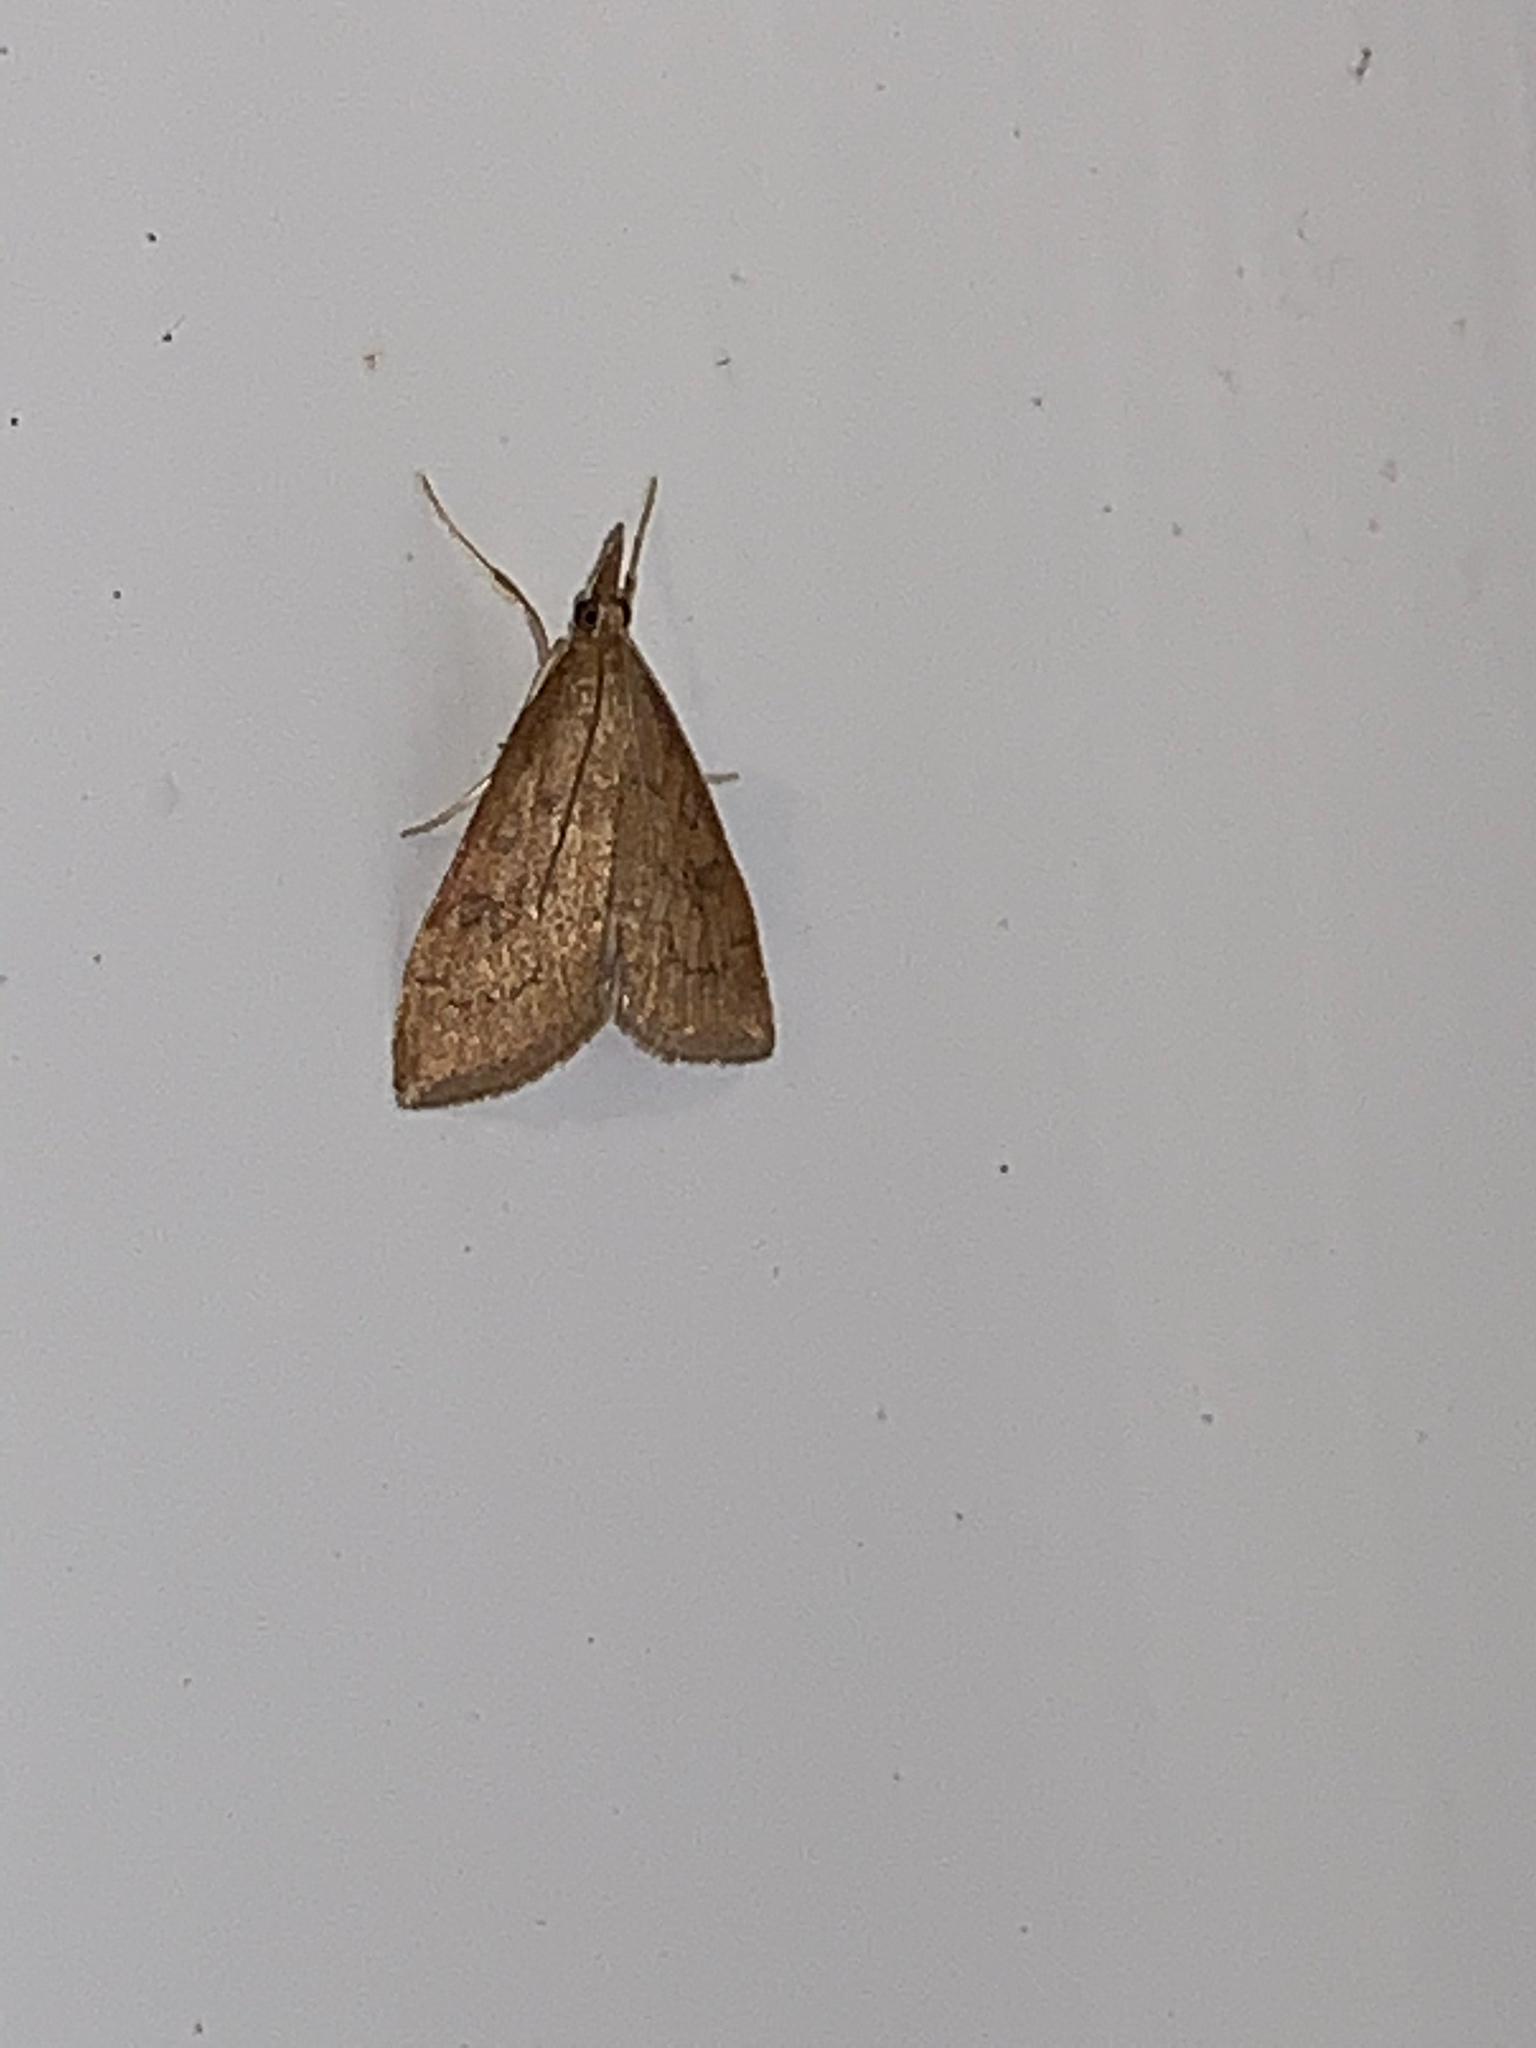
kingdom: Animalia
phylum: Arthropoda
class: Insecta
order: Lepidoptera
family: Crambidae
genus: Udea
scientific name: Udea rubigalis
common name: Celery leaftier moth
